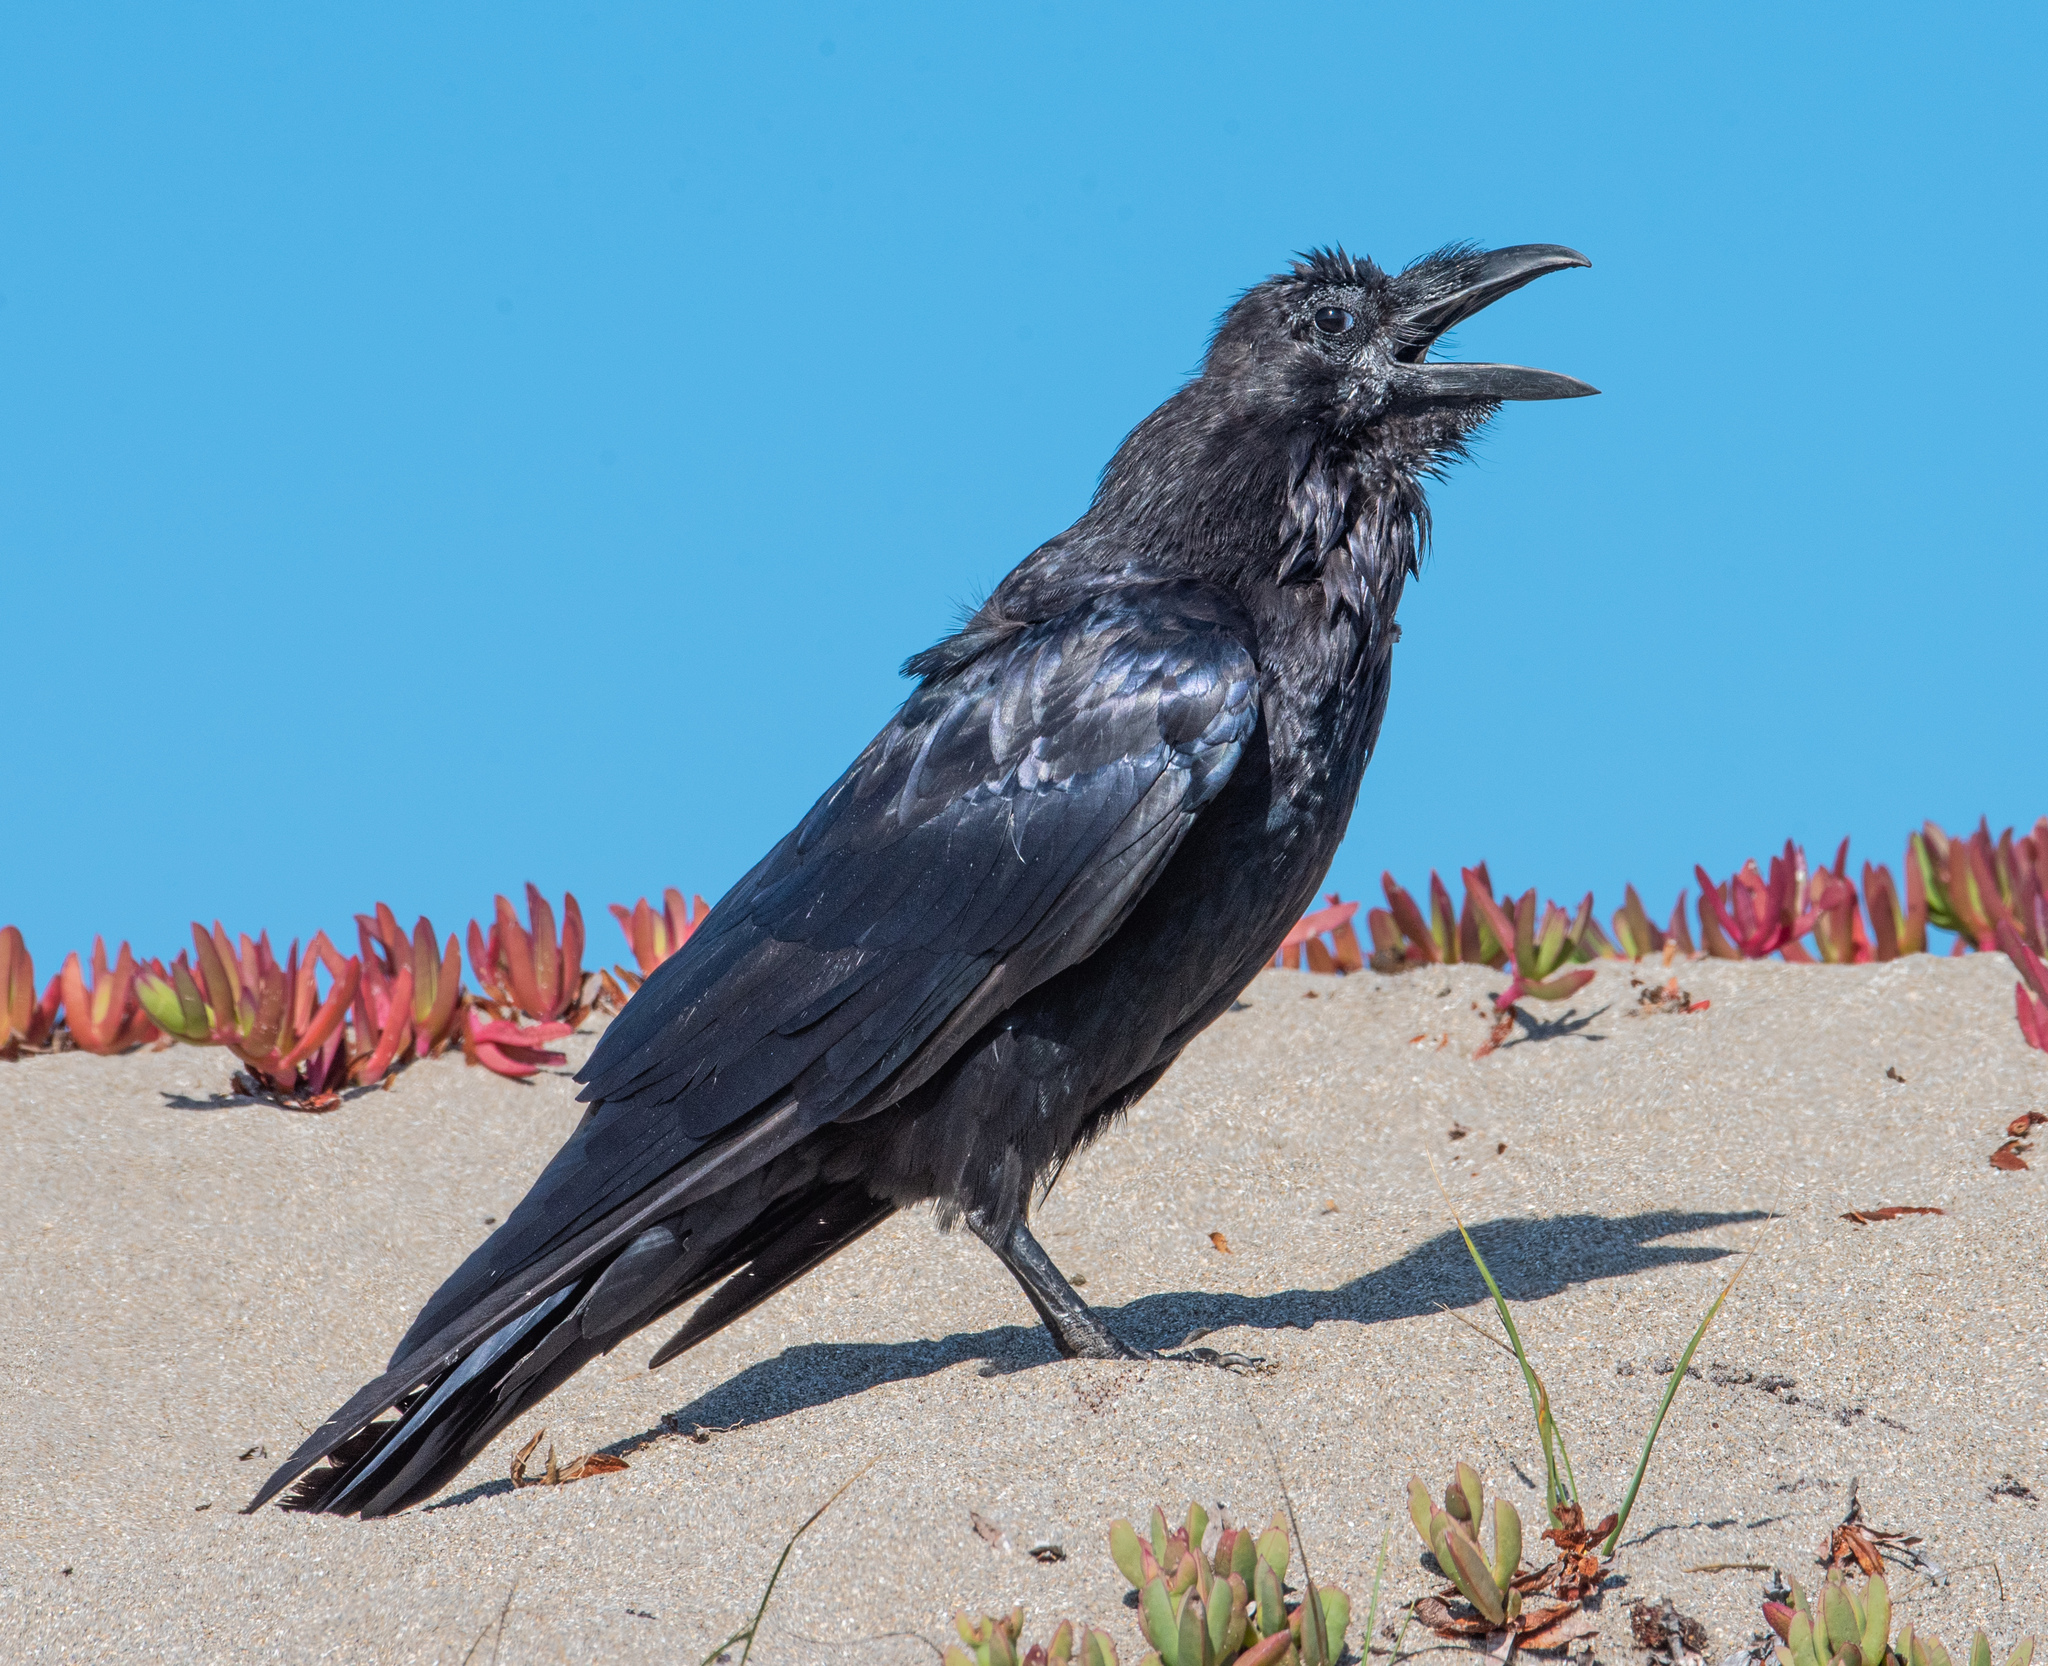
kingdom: Animalia
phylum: Chordata
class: Aves
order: Passeriformes
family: Corvidae
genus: Corvus
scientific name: Corvus corax
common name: Common raven
